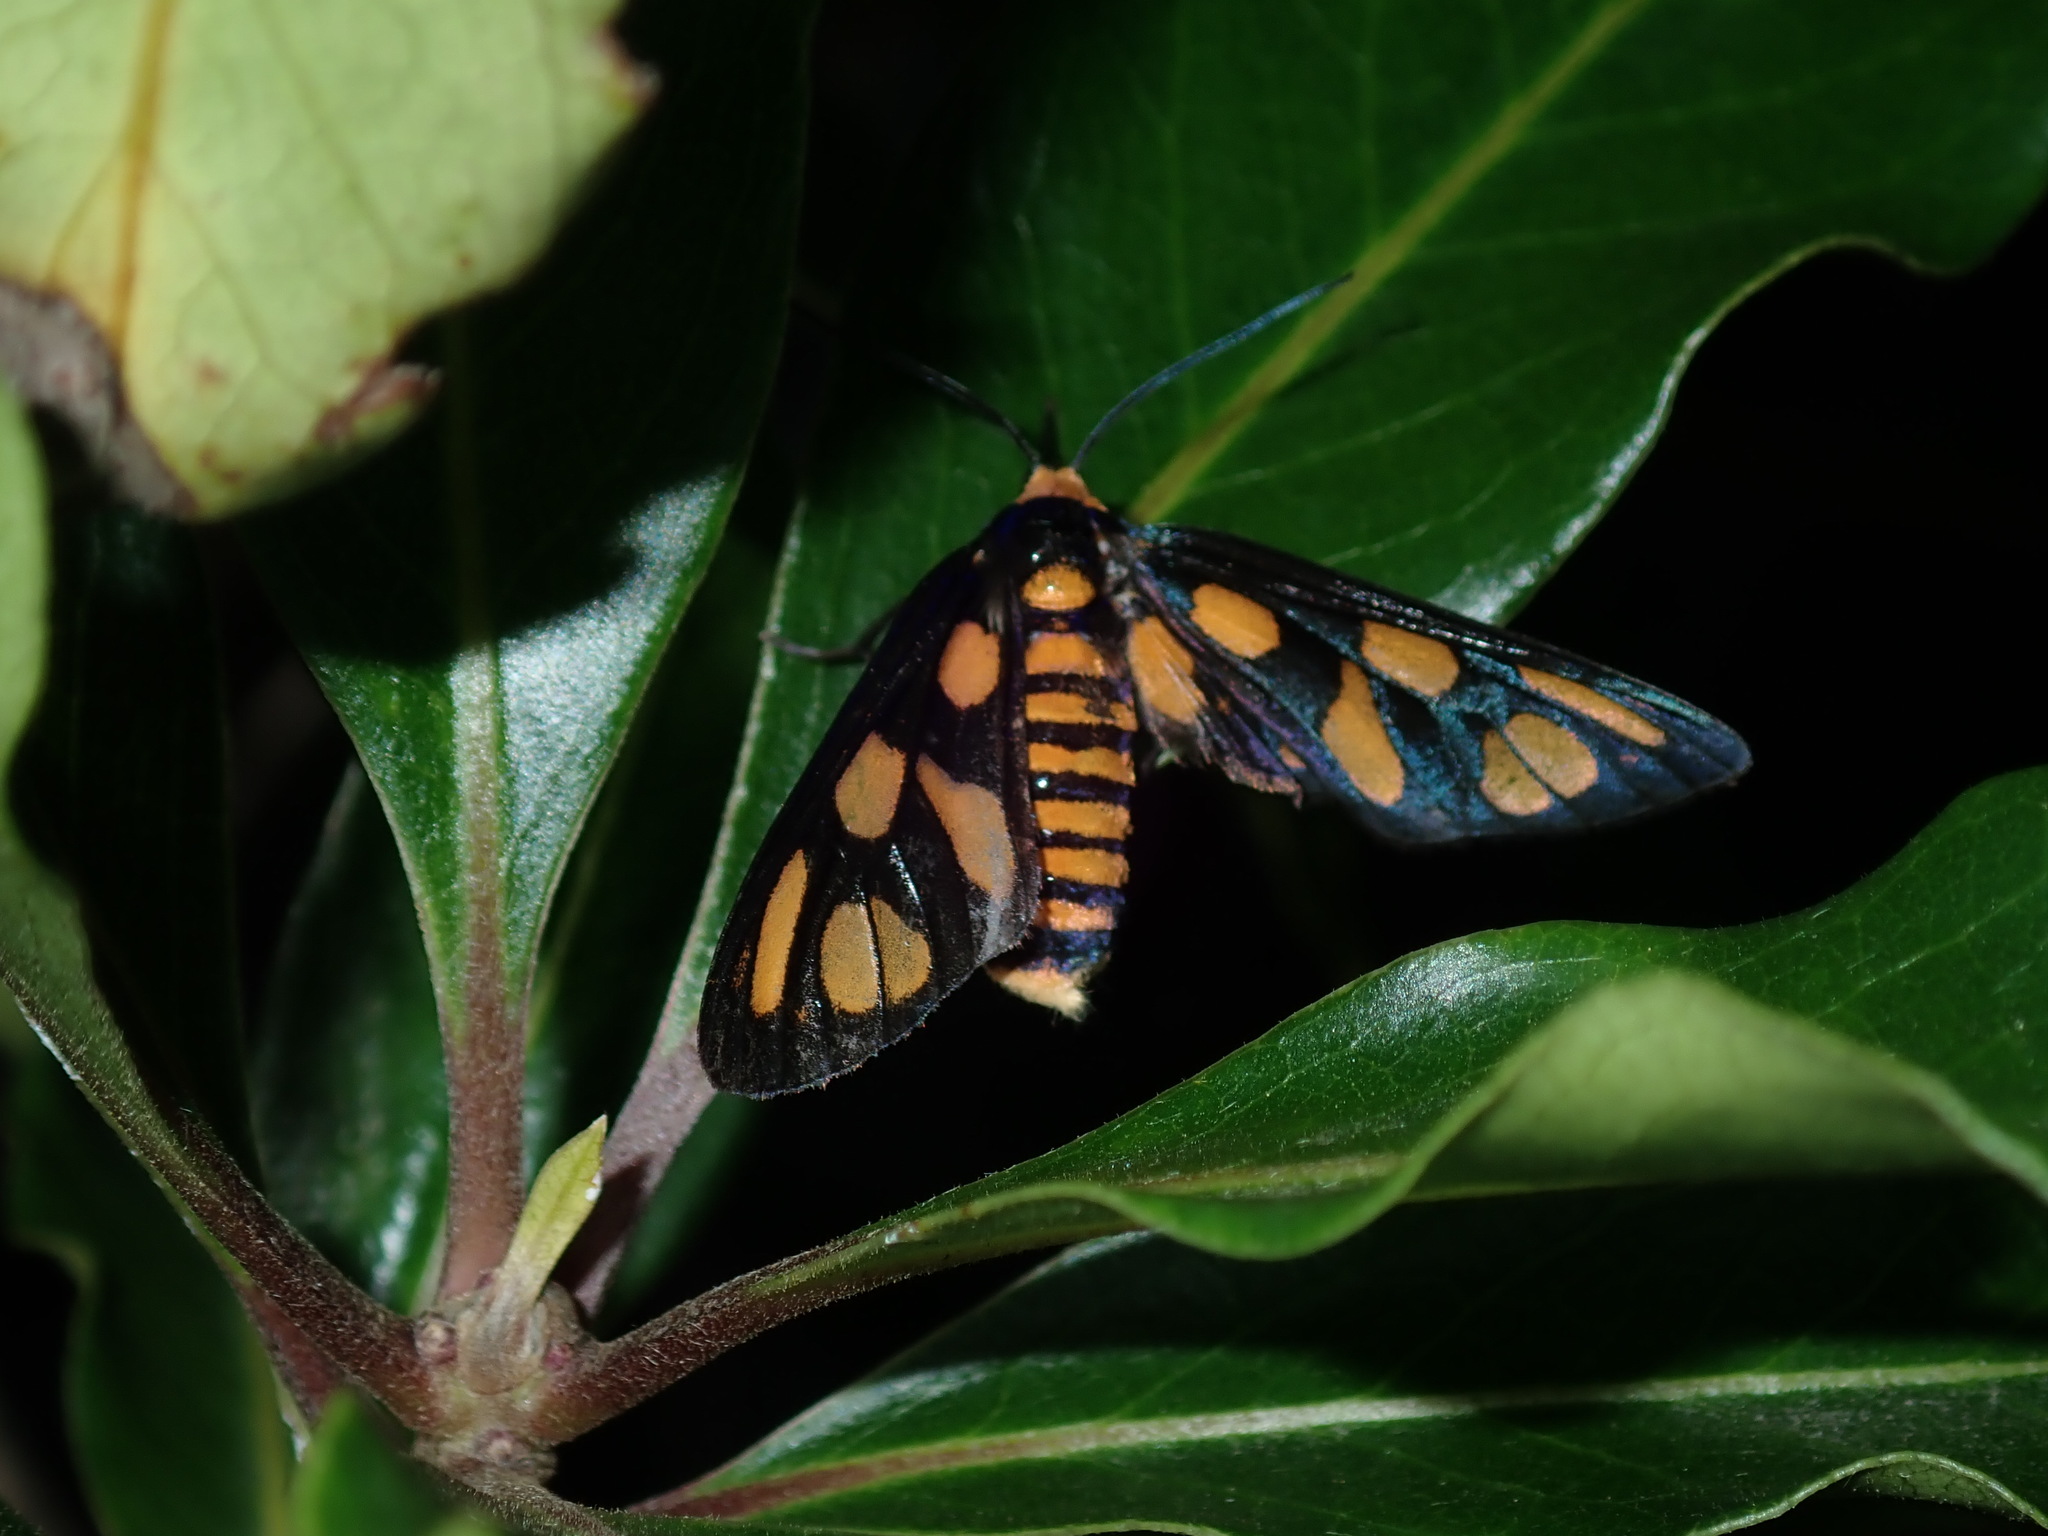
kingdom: Animalia
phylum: Arthropoda
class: Insecta
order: Lepidoptera
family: Erebidae
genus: Amata
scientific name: Amata aperta
